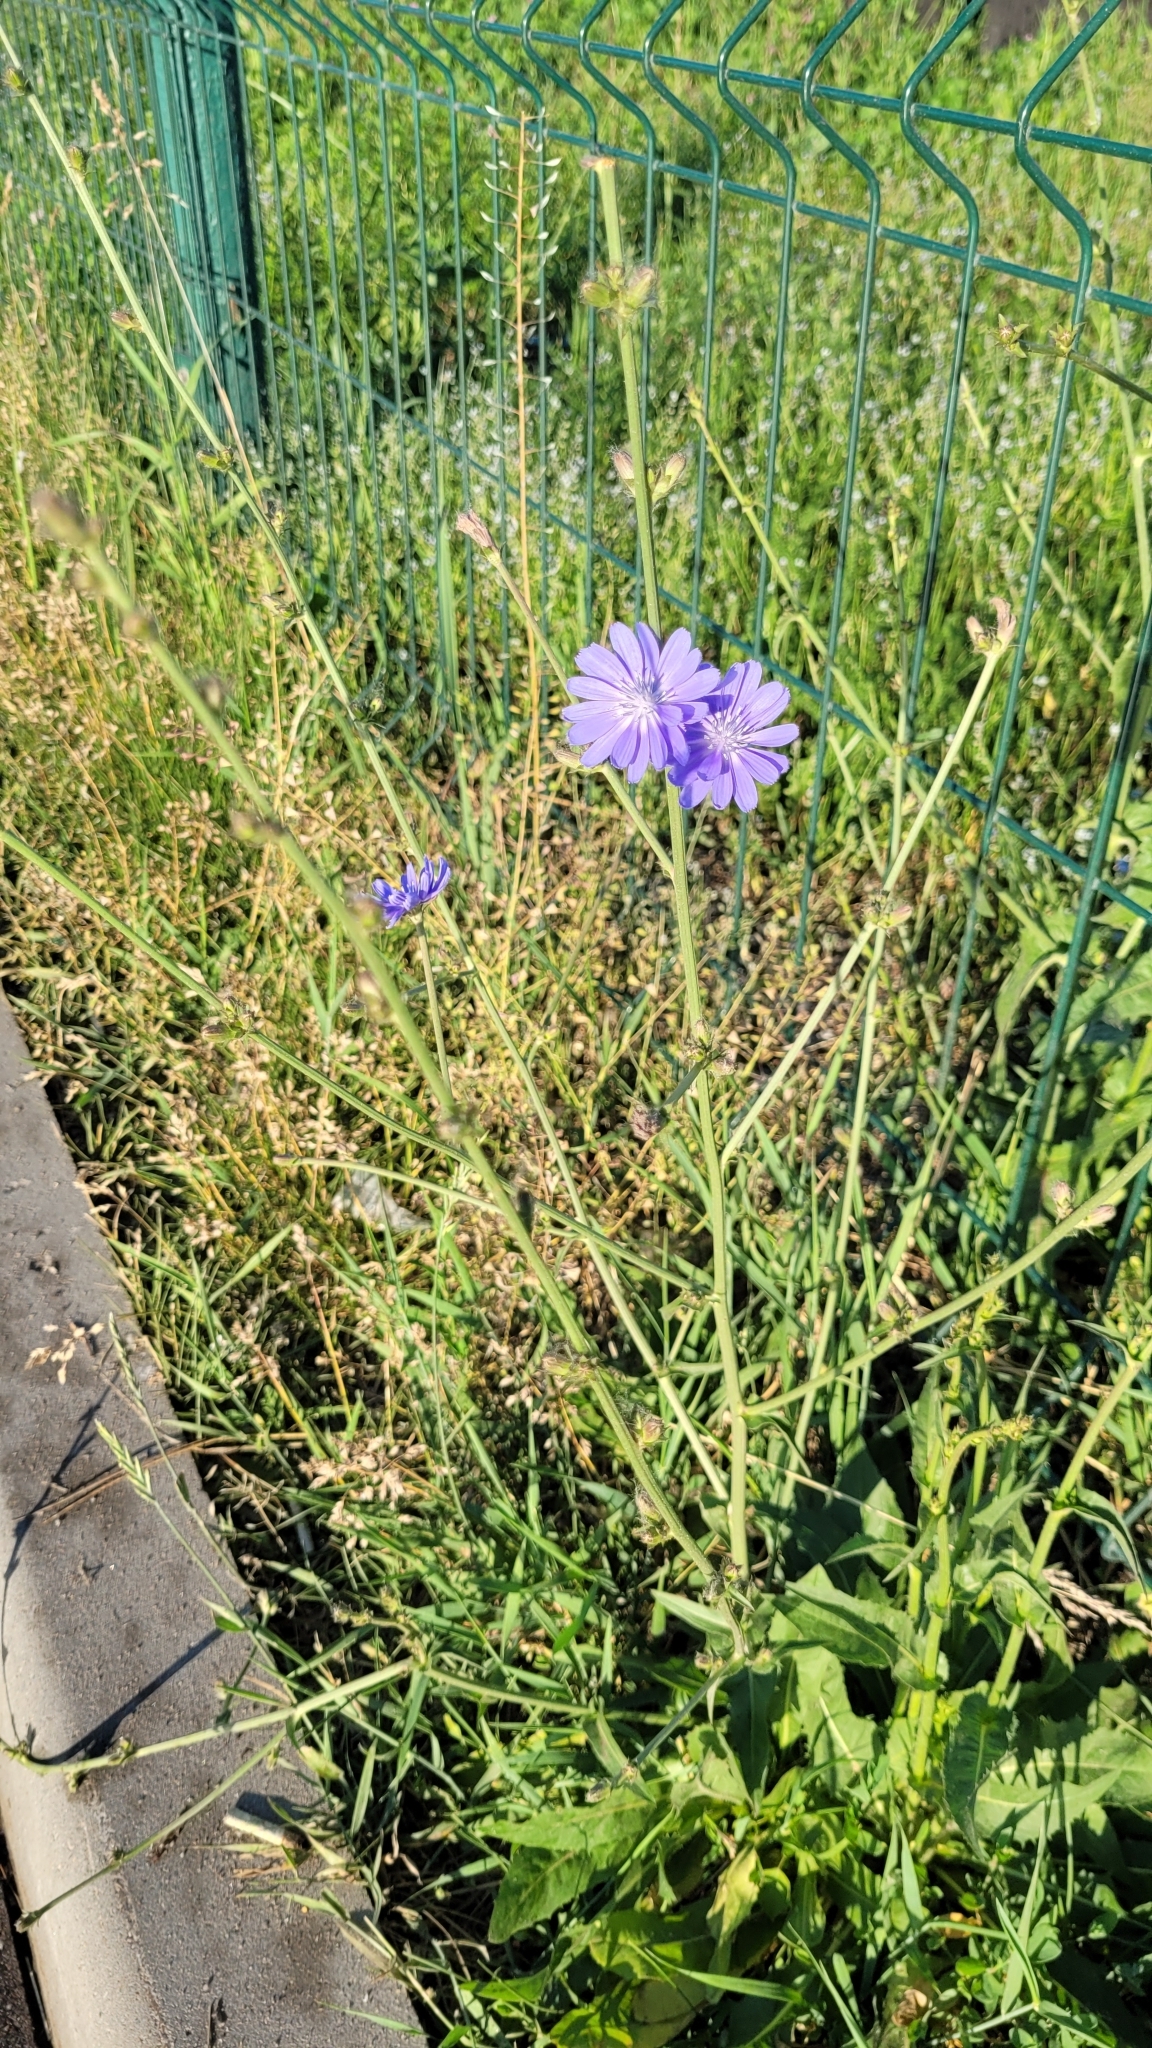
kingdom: Plantae
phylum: Tracheophyta
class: Magnoliopsida
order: Asterales
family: Asteraceae
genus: Cichorium
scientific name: Cichorium intybus
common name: Chicory
